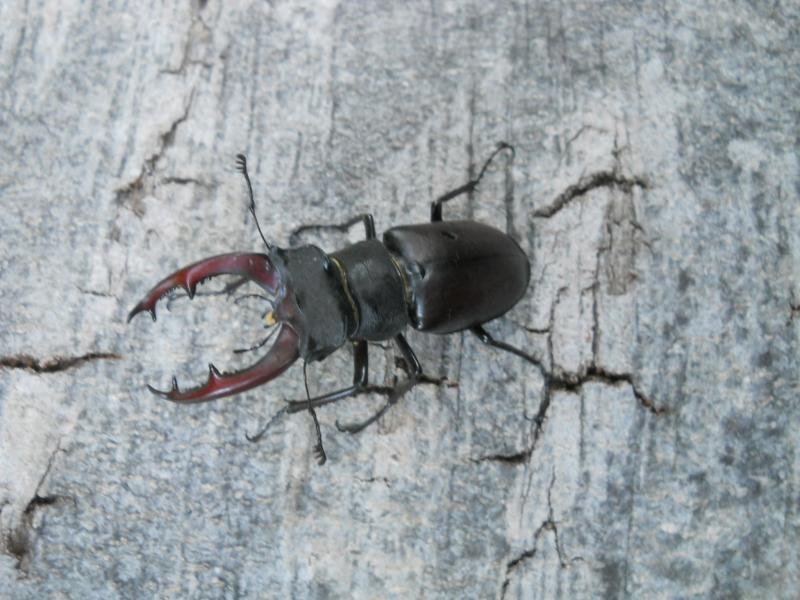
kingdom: Animalia
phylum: Arthropoda
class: Insecta
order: Coleoptera
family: Lucanidae
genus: Lucanus
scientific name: Lucanus cervus
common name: Stag beetle
